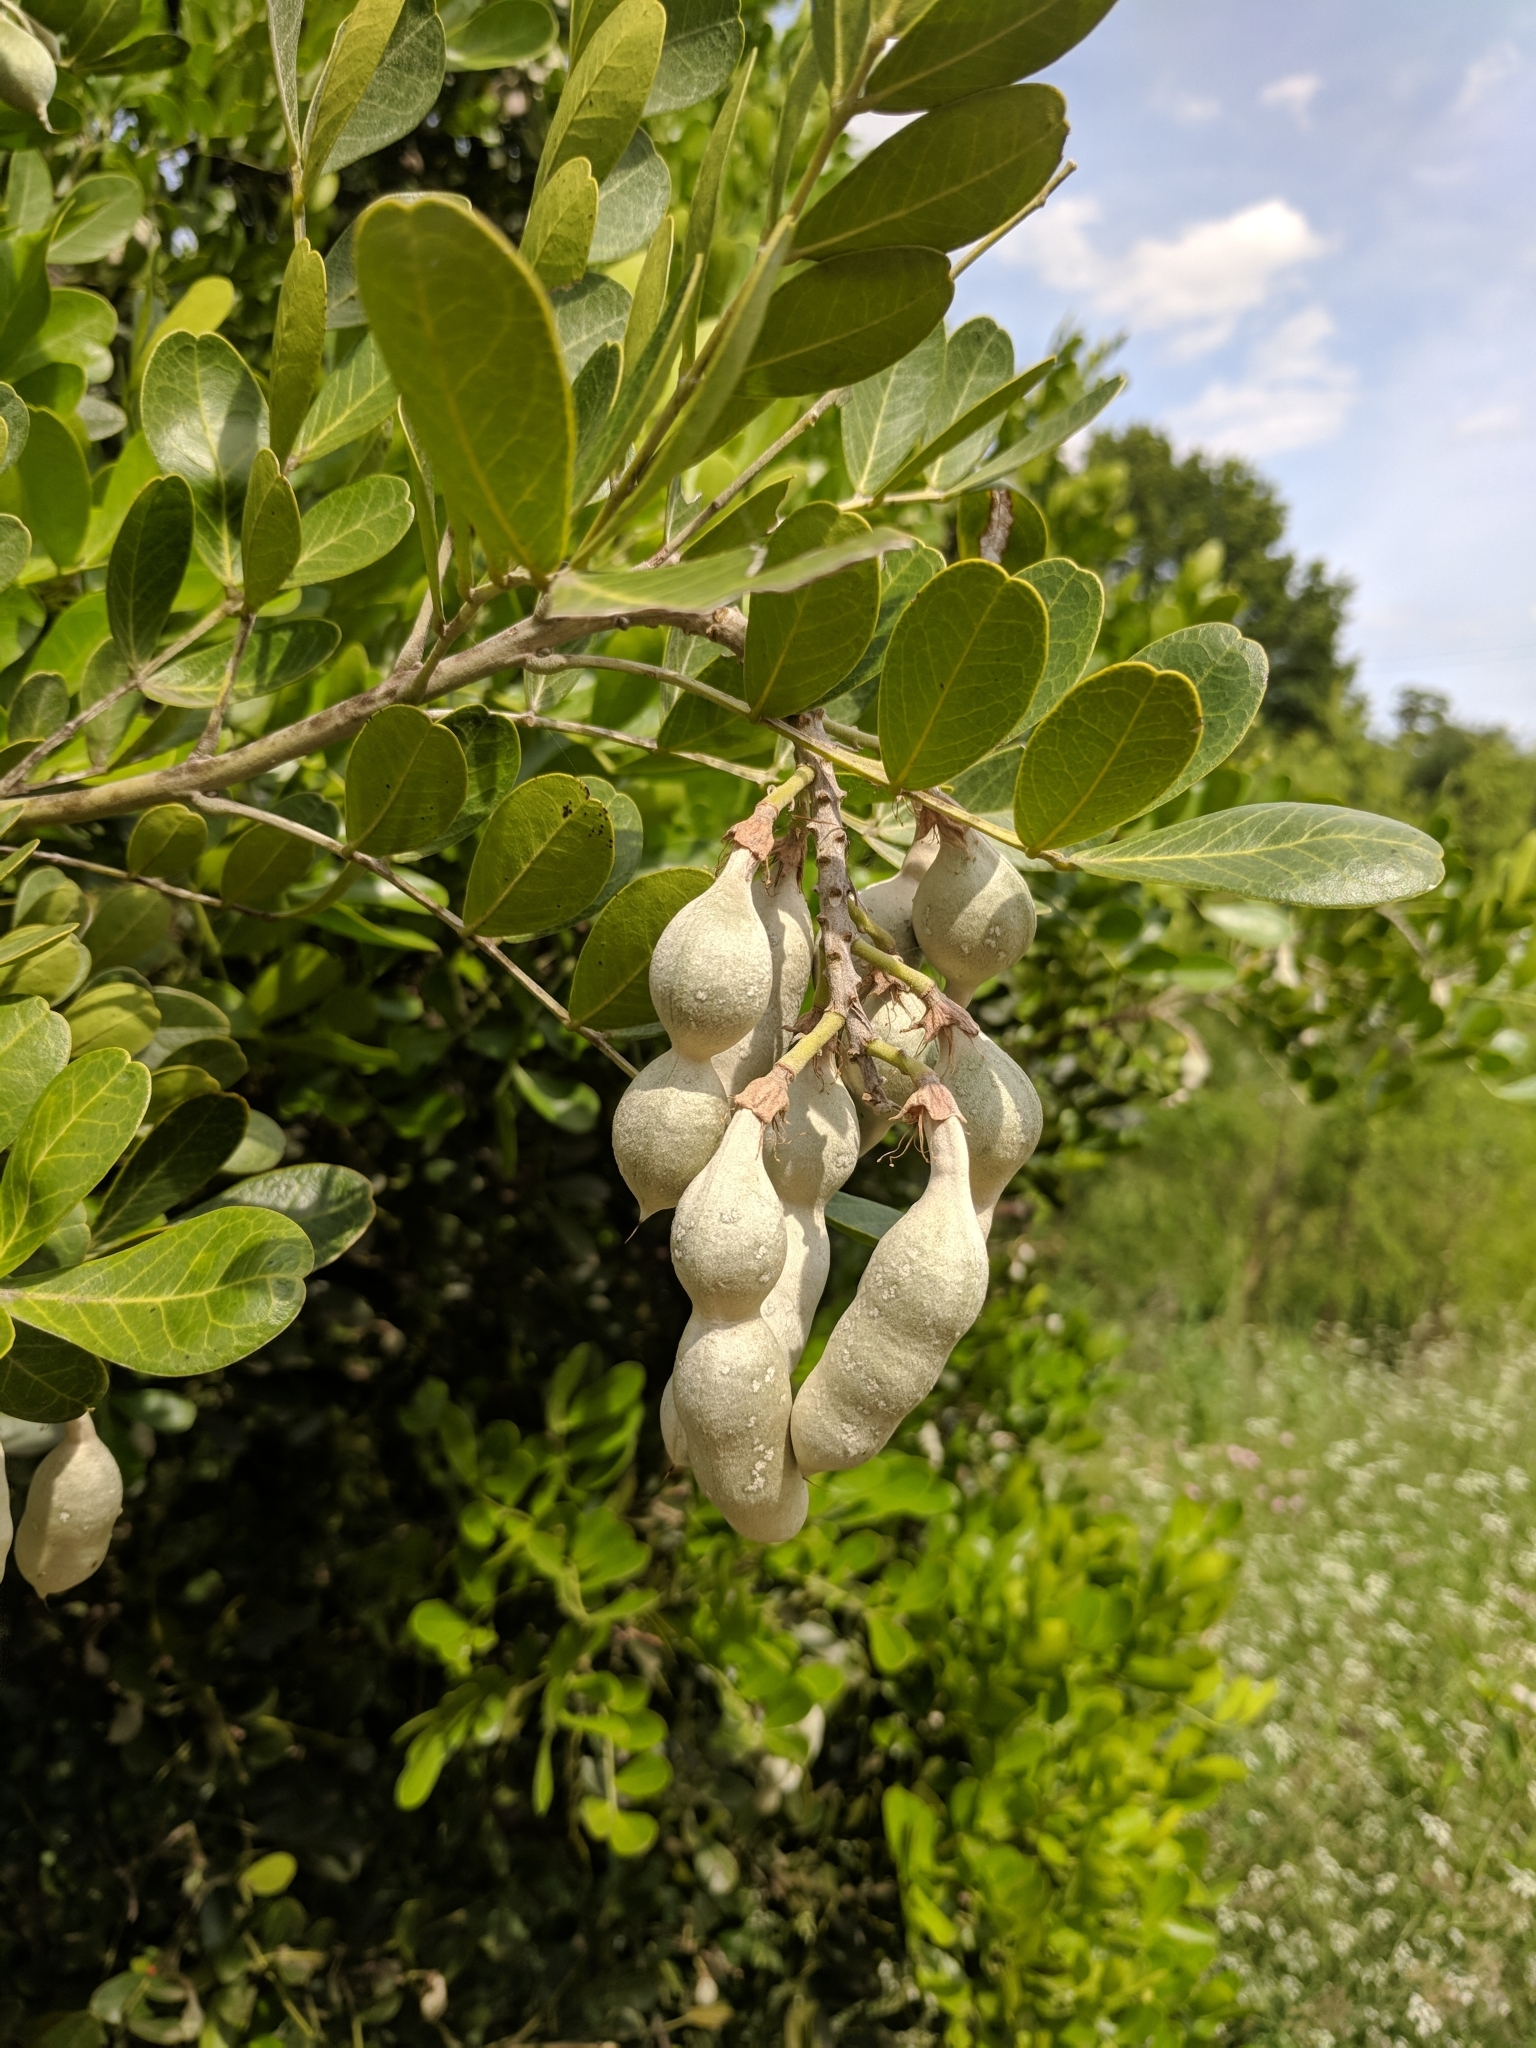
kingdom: Plantae
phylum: Tracheophyta
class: Magnoliopsida
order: Fabales
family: Fabaceae
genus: Dermatophyllum
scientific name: Dermatophyllum secundiflorum
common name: Texas-mountain-laurel
